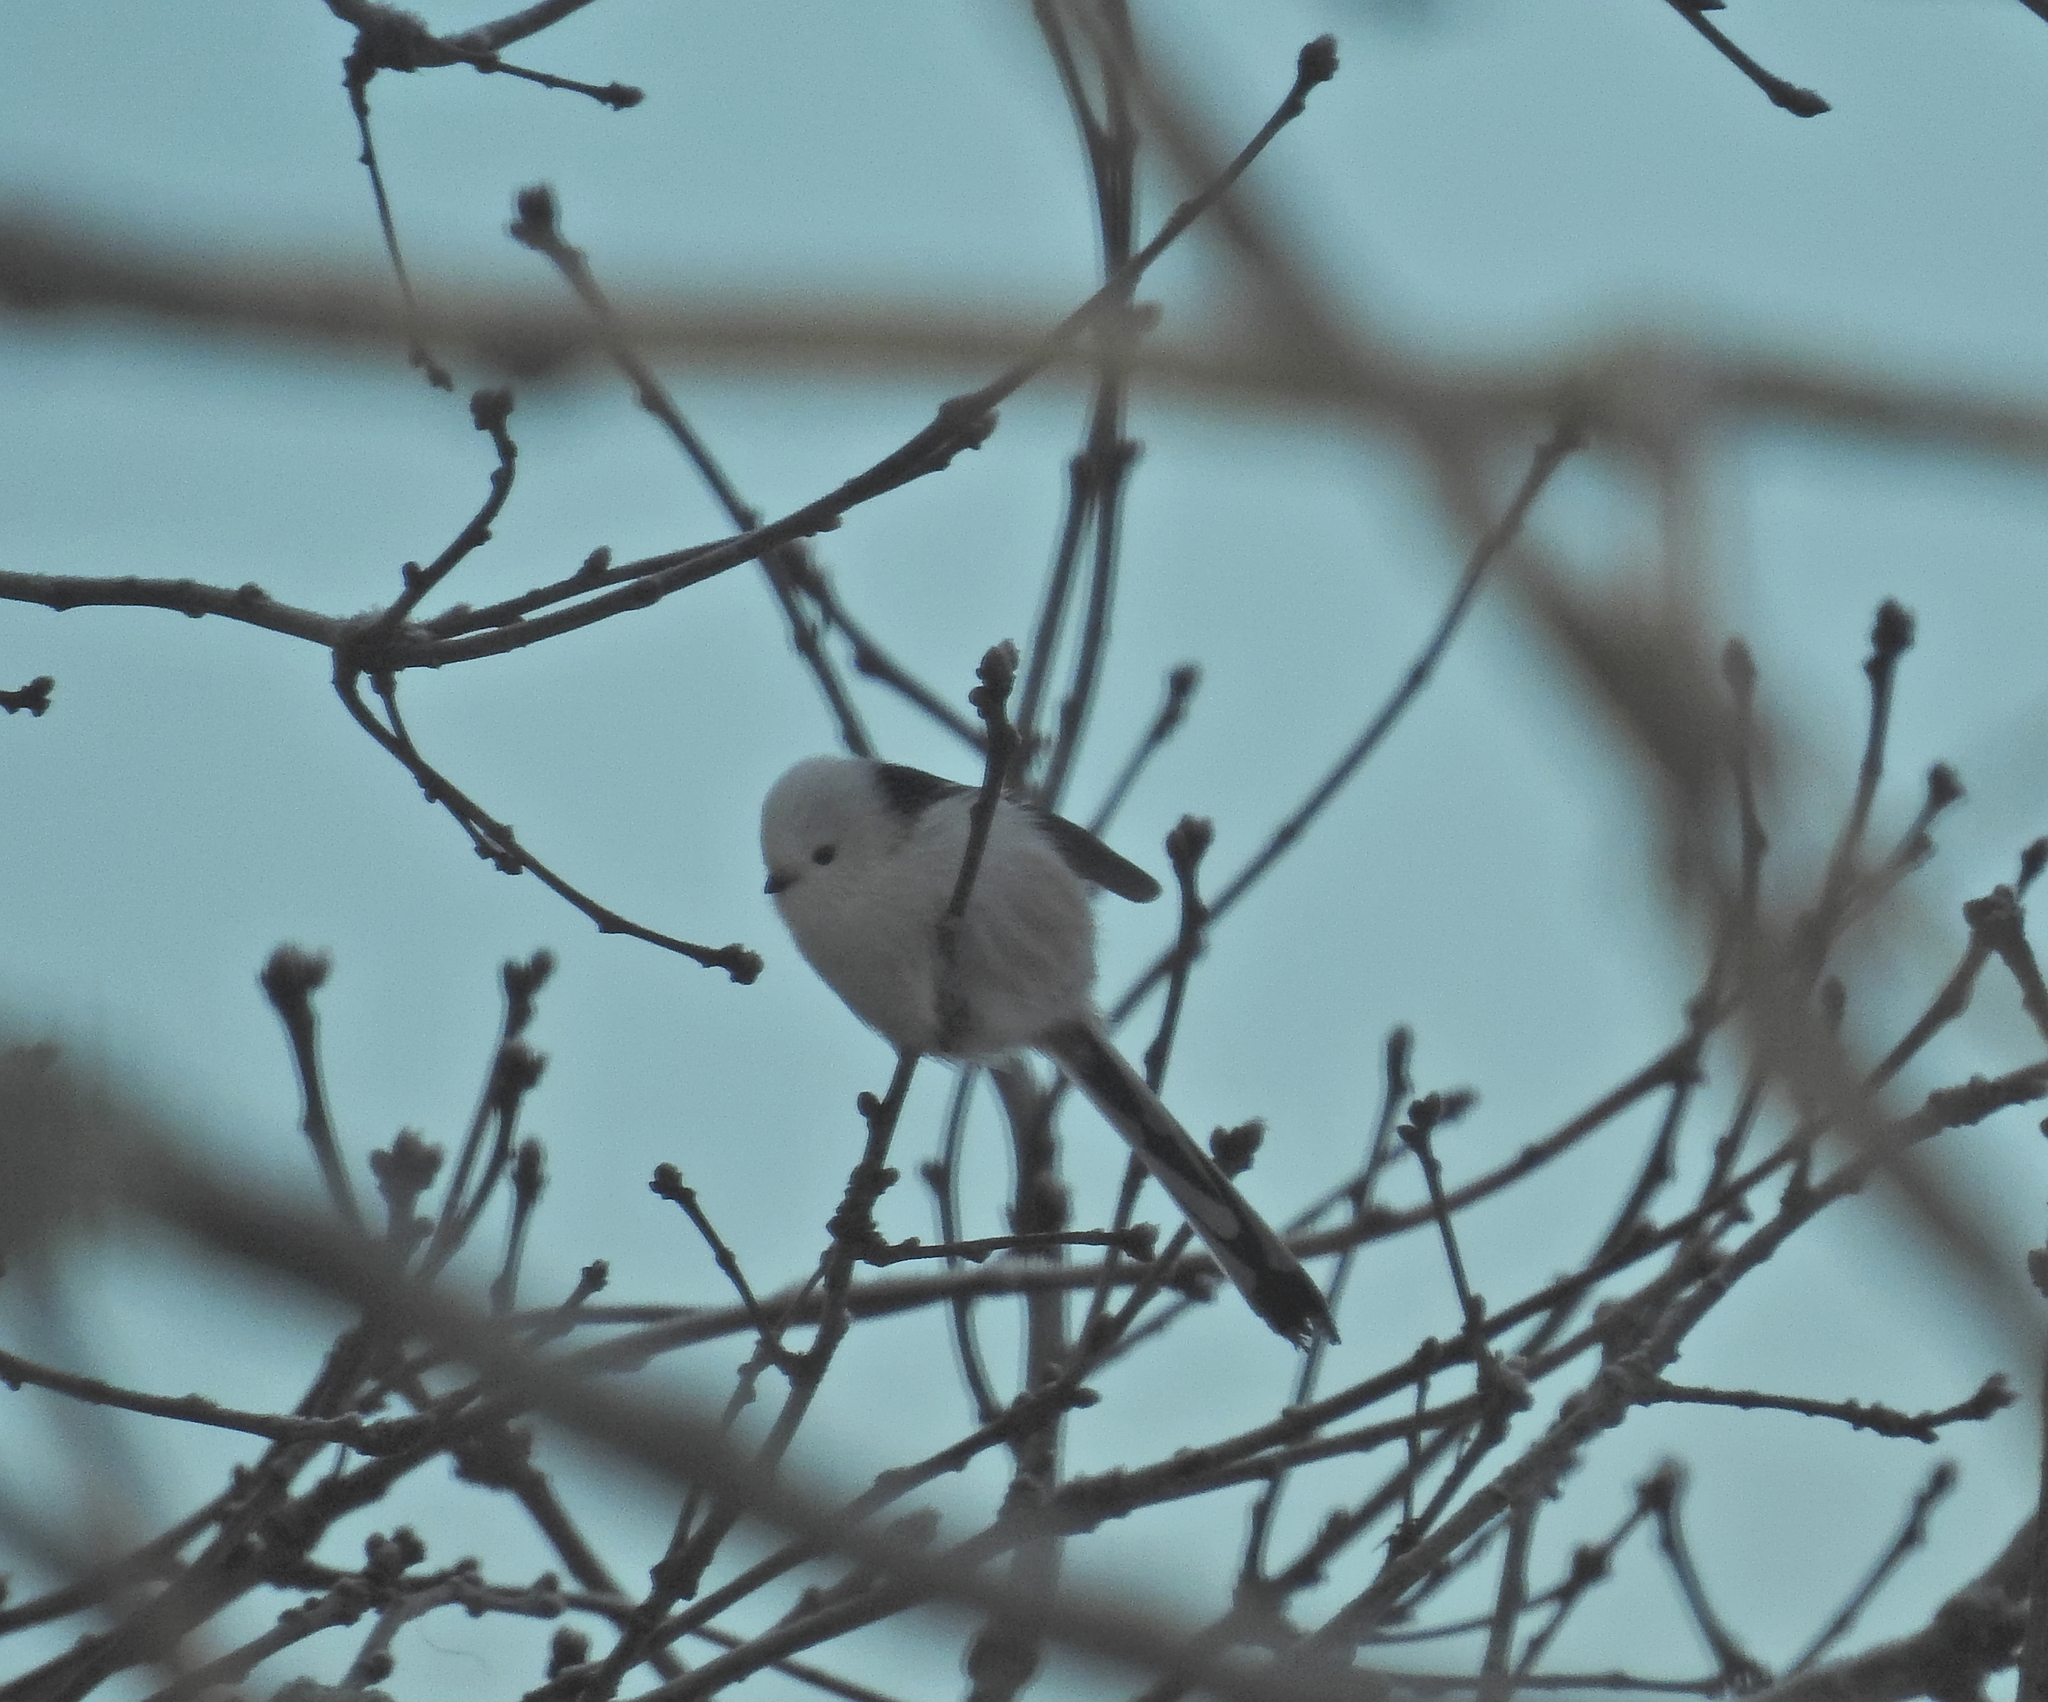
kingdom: Animalia
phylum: Chordata
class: Aves
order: Passeriformes
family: Aegithalidae
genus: Aegithalos
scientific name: Aegithalos caudatus
